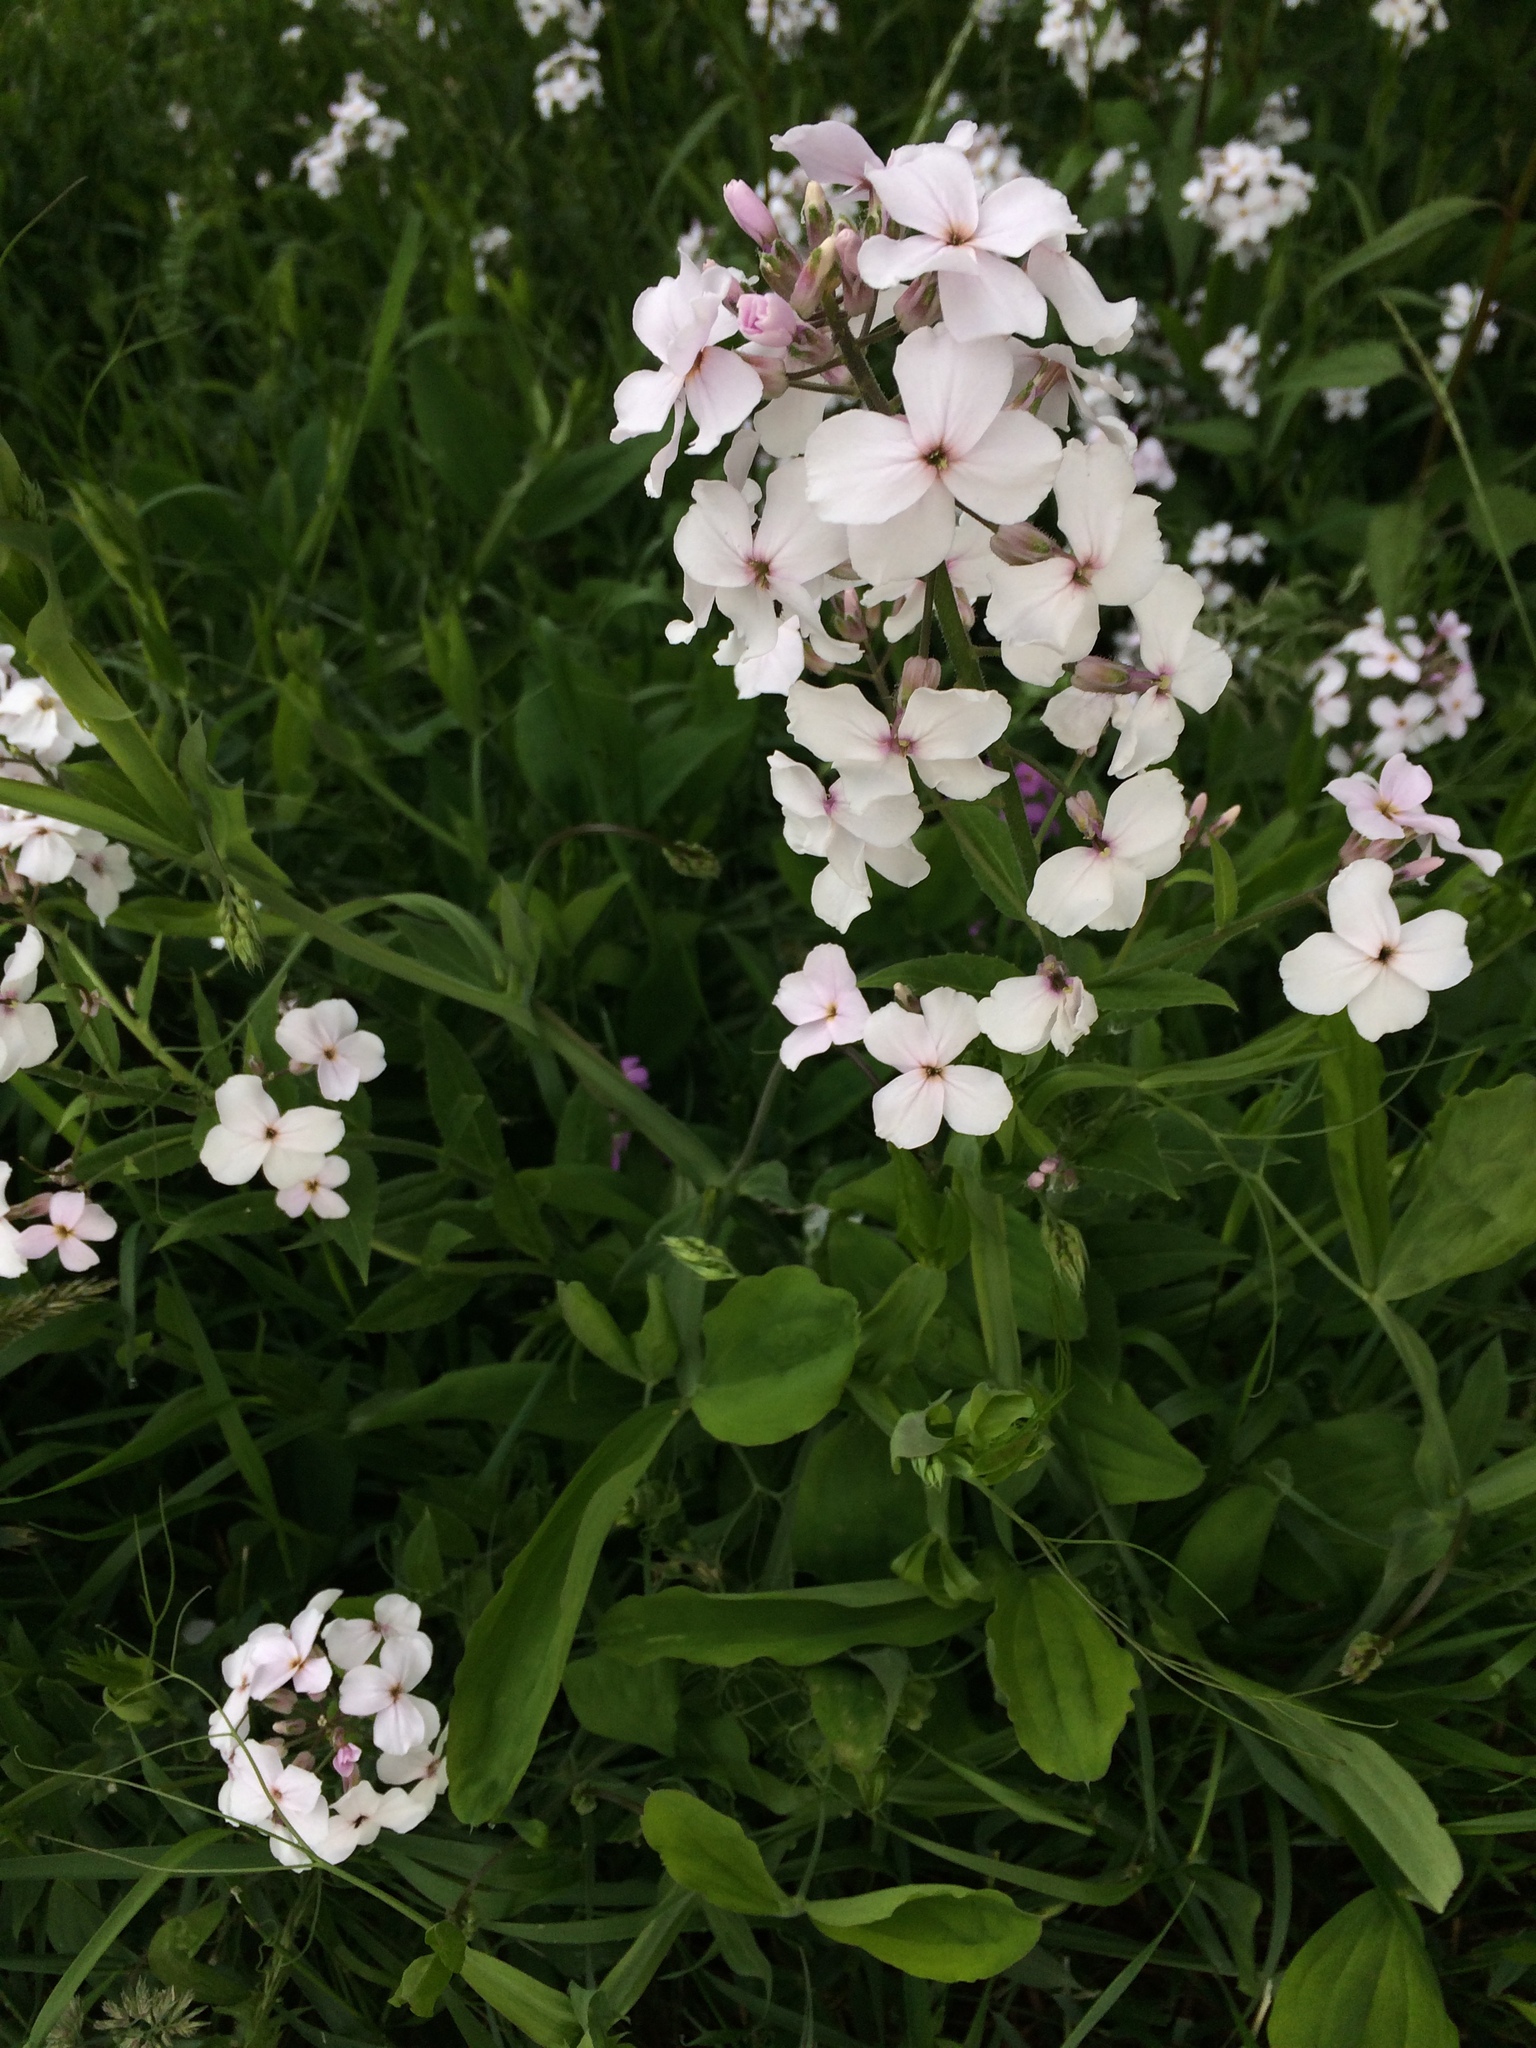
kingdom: Plantae
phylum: Tracheophyta
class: Magnoliopsida
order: Brassicales
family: Brassicaceae
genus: Hesperis
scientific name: Hesperis matronalis
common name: Dame's-violet
